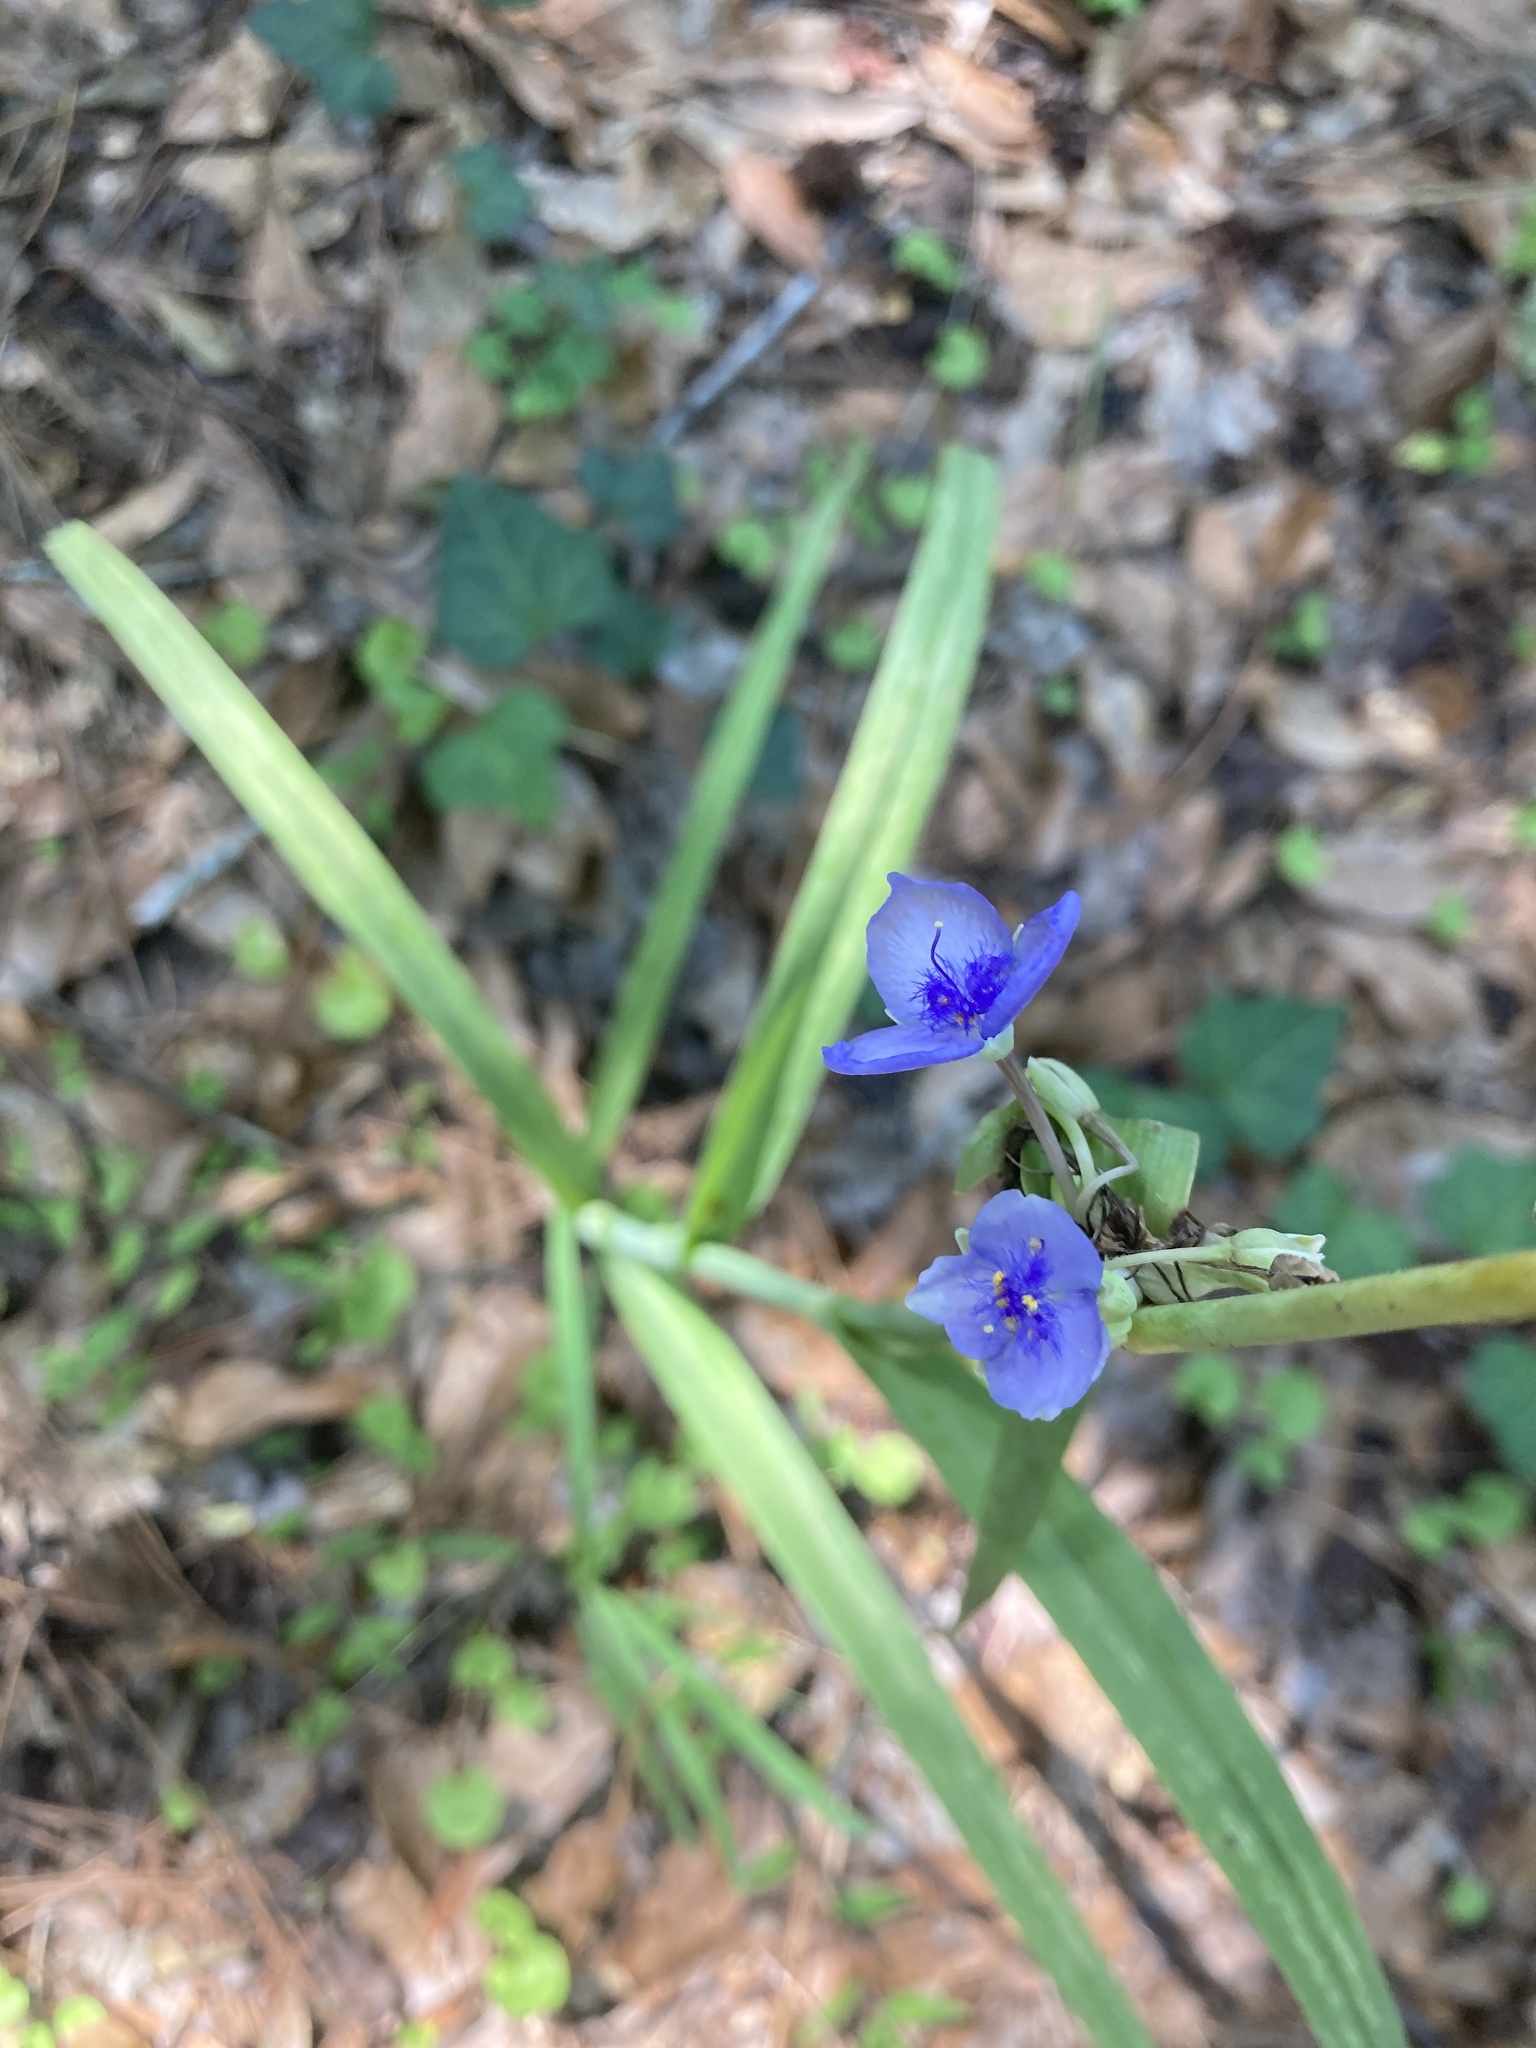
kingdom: Plantae
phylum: Tracheophyta
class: Liliopsida
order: Commelinales
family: Commelinaceae
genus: Tradescantia
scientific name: Tradescantia ohiensis
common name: Ohio spiderwort
